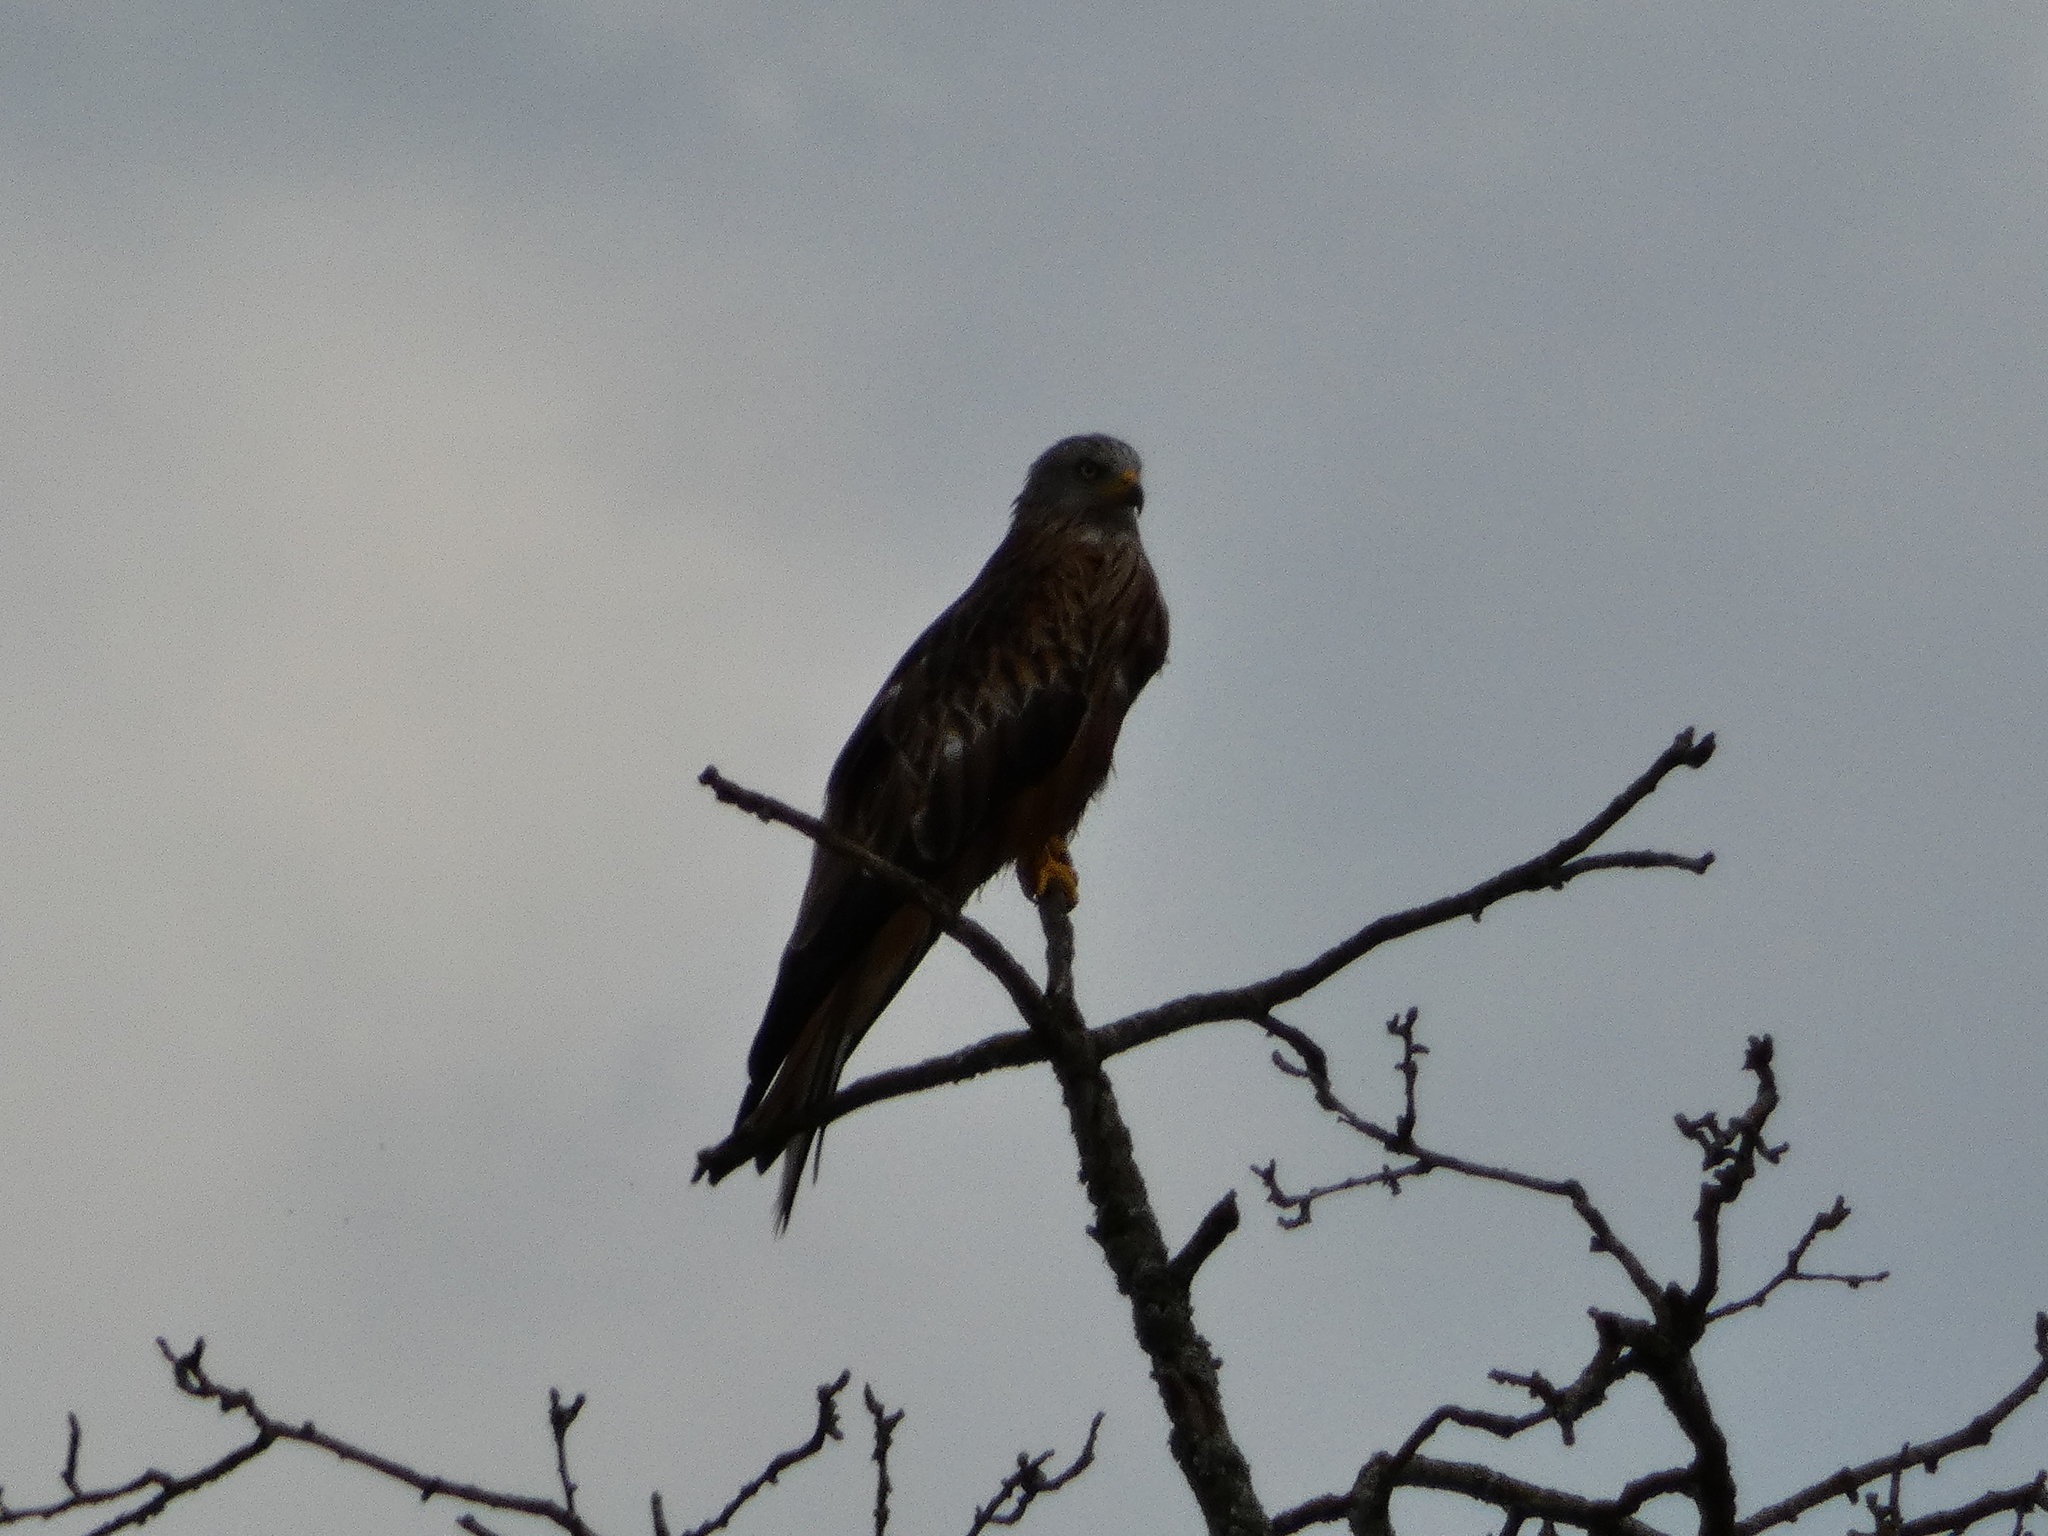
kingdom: Animalia
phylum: Chordata
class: Aves
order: Accipitriformes
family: Accipitridae
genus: Milvus
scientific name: Milvus milvus
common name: Red kite
